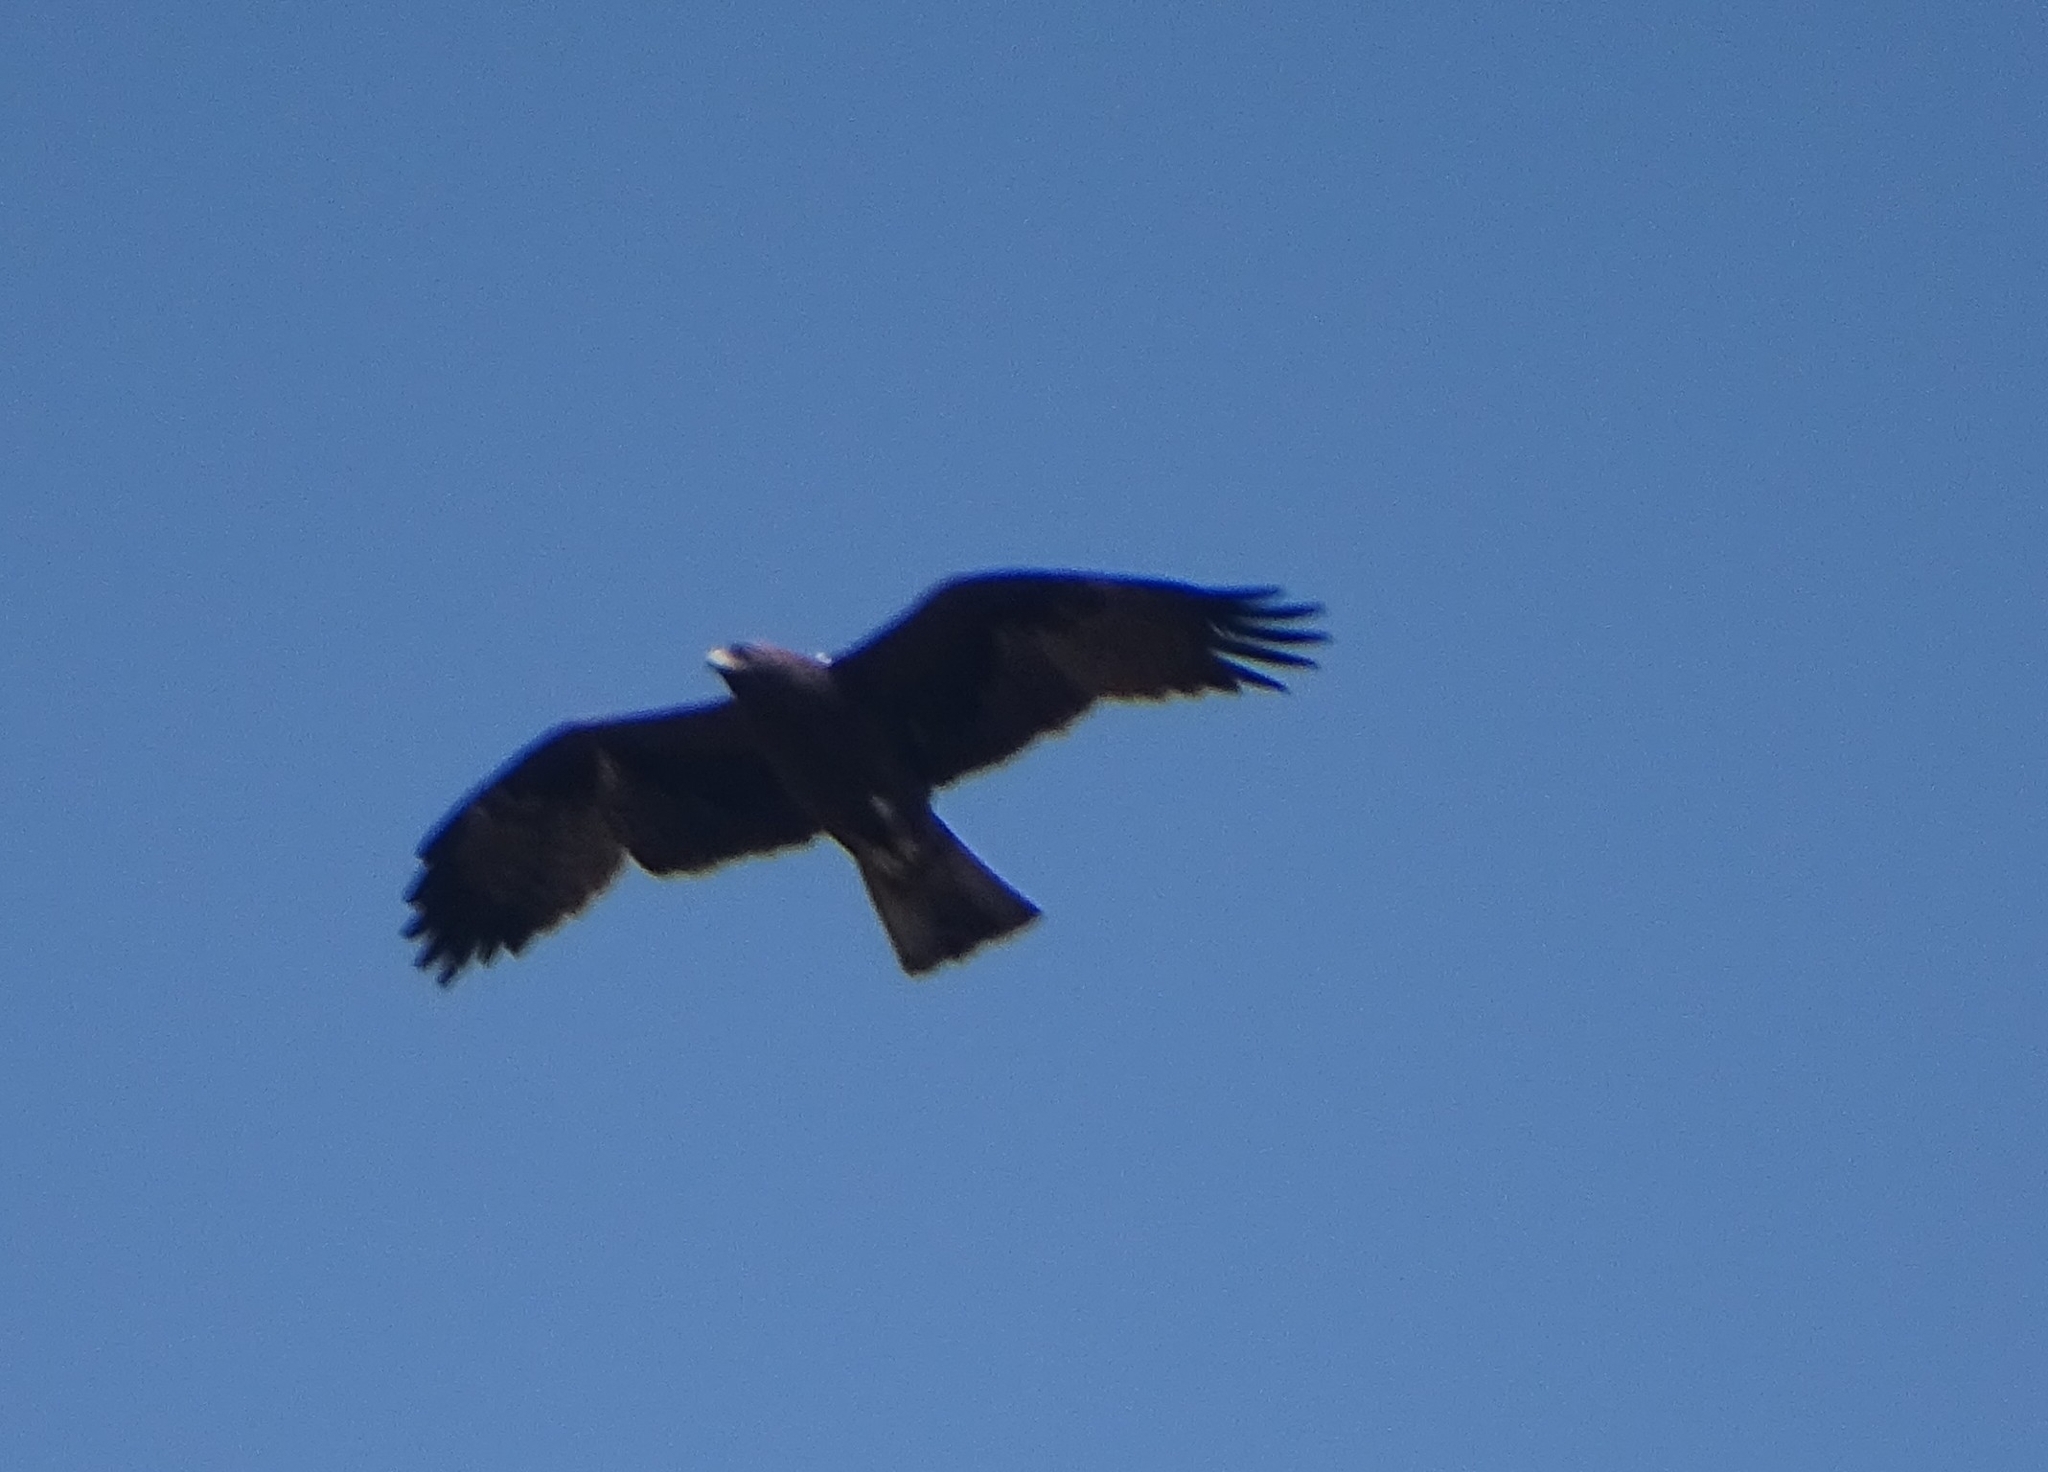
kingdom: Animalia
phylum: Chordata
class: Aves
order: Accipitriformes
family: Accipitridae
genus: Hieraaetus
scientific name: Hieraaetus pennatus
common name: Booted eagle
